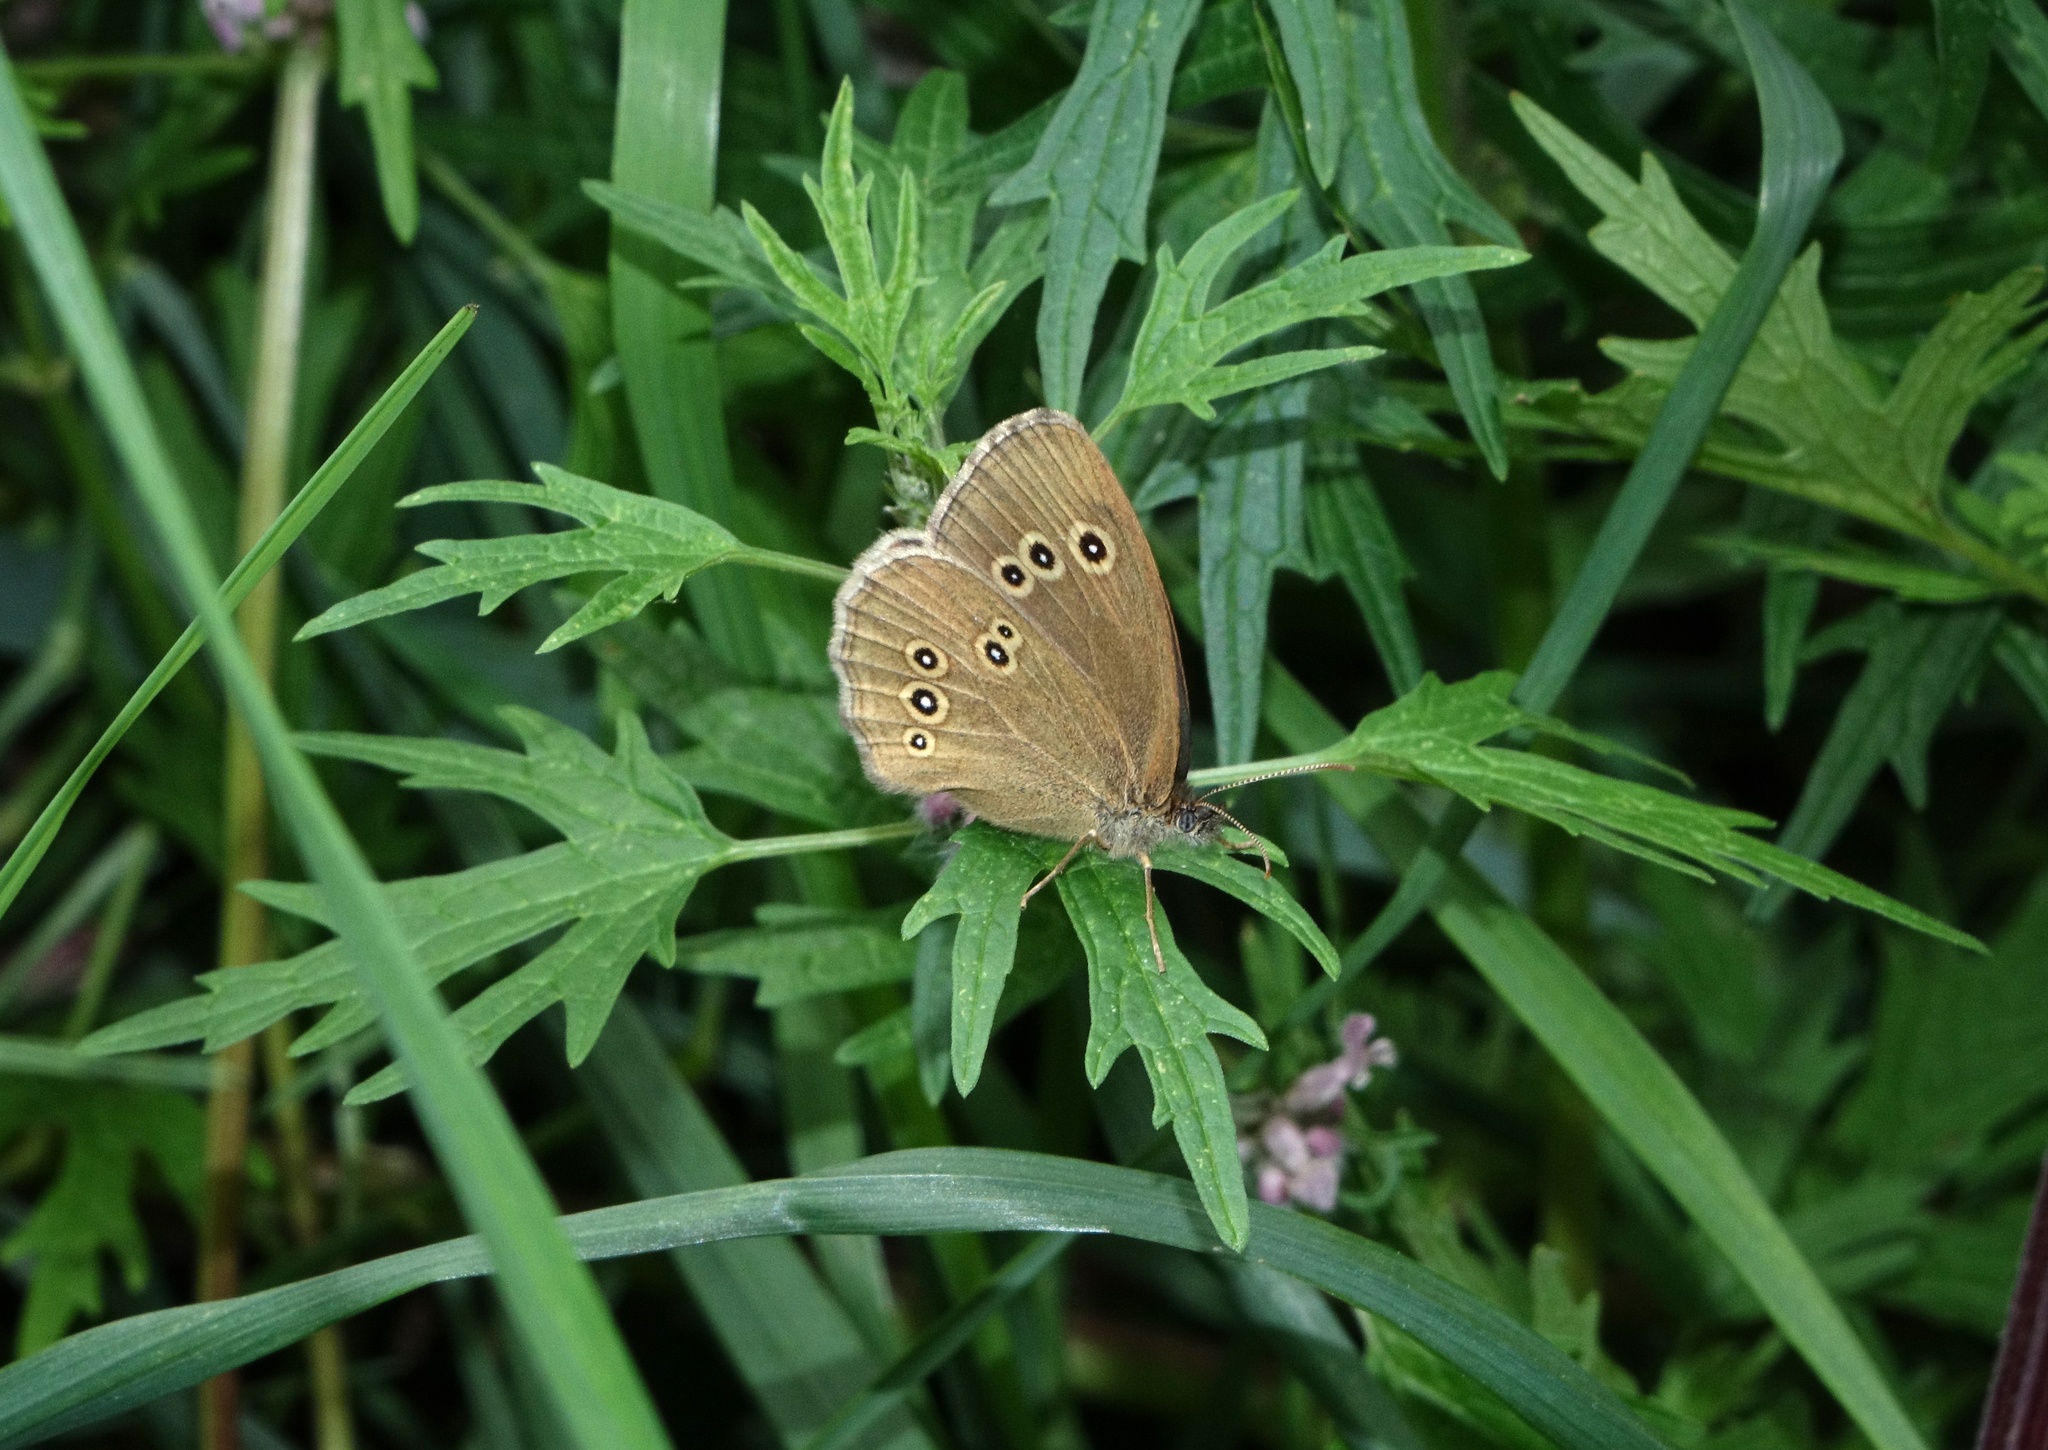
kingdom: Animalia
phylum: Arthropoda
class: Insecta
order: Lepidoptera
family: Nymphalidae
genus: Aphantopus
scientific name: Aphantopus hyperantus
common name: Ringlet
